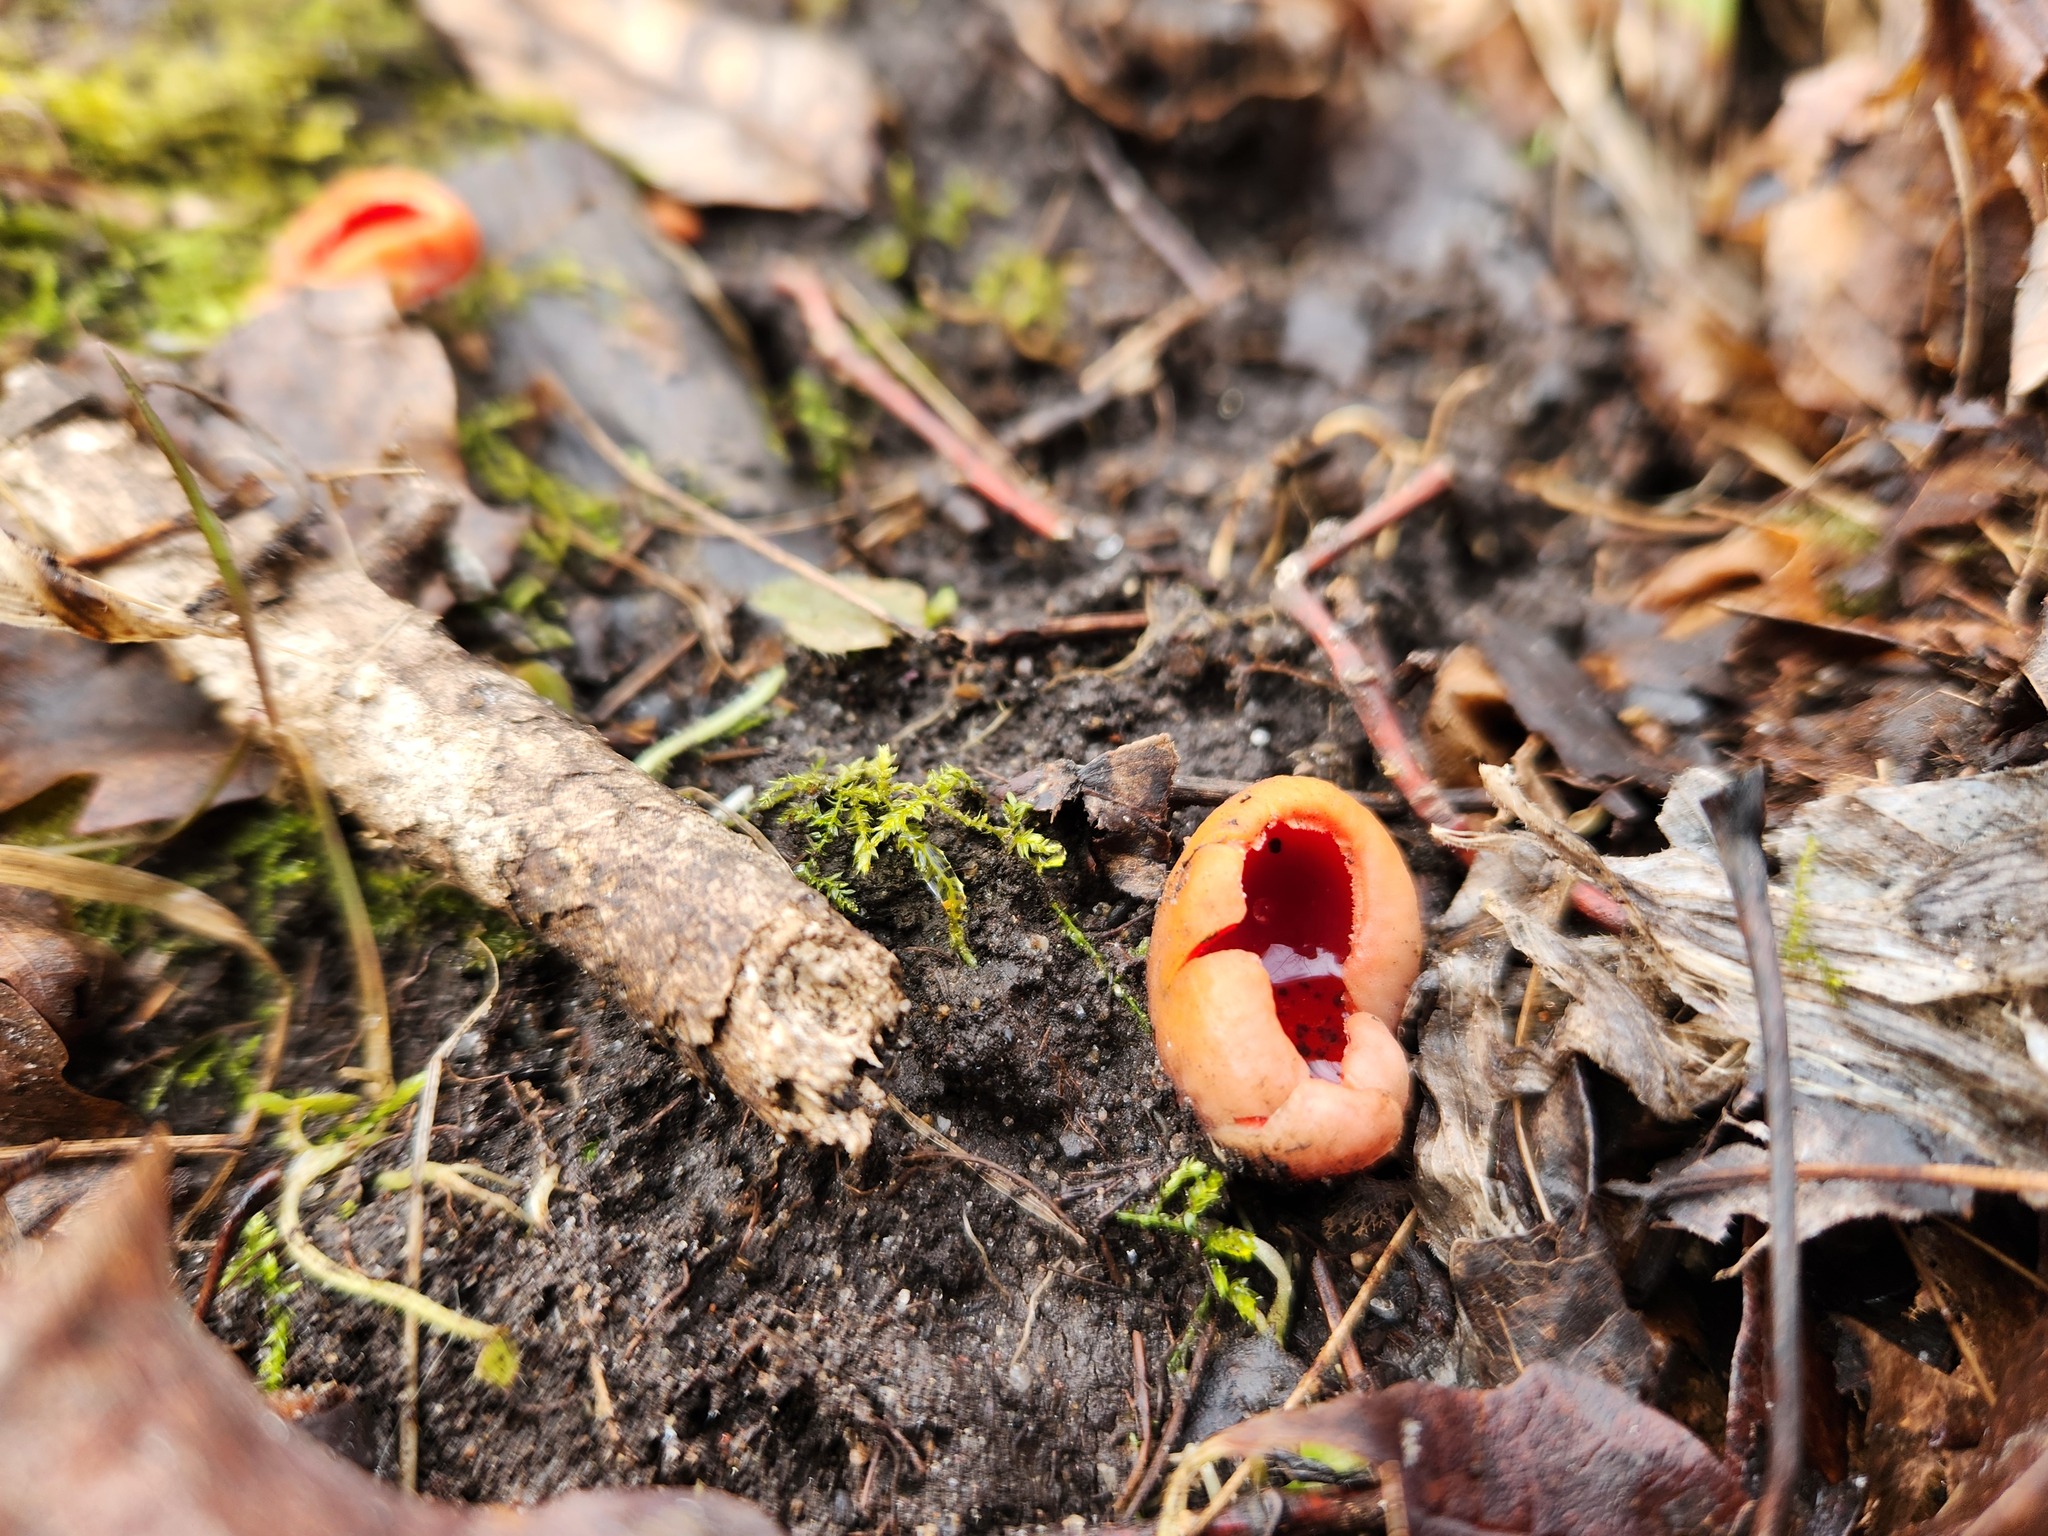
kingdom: Fungi
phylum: Ascomycota
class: Pezizomycetes
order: Pezizales
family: Sarcoscyphaceae
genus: Sarcoscypha
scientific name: Sarcoscypha austriaca
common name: Scarlet elfcup
